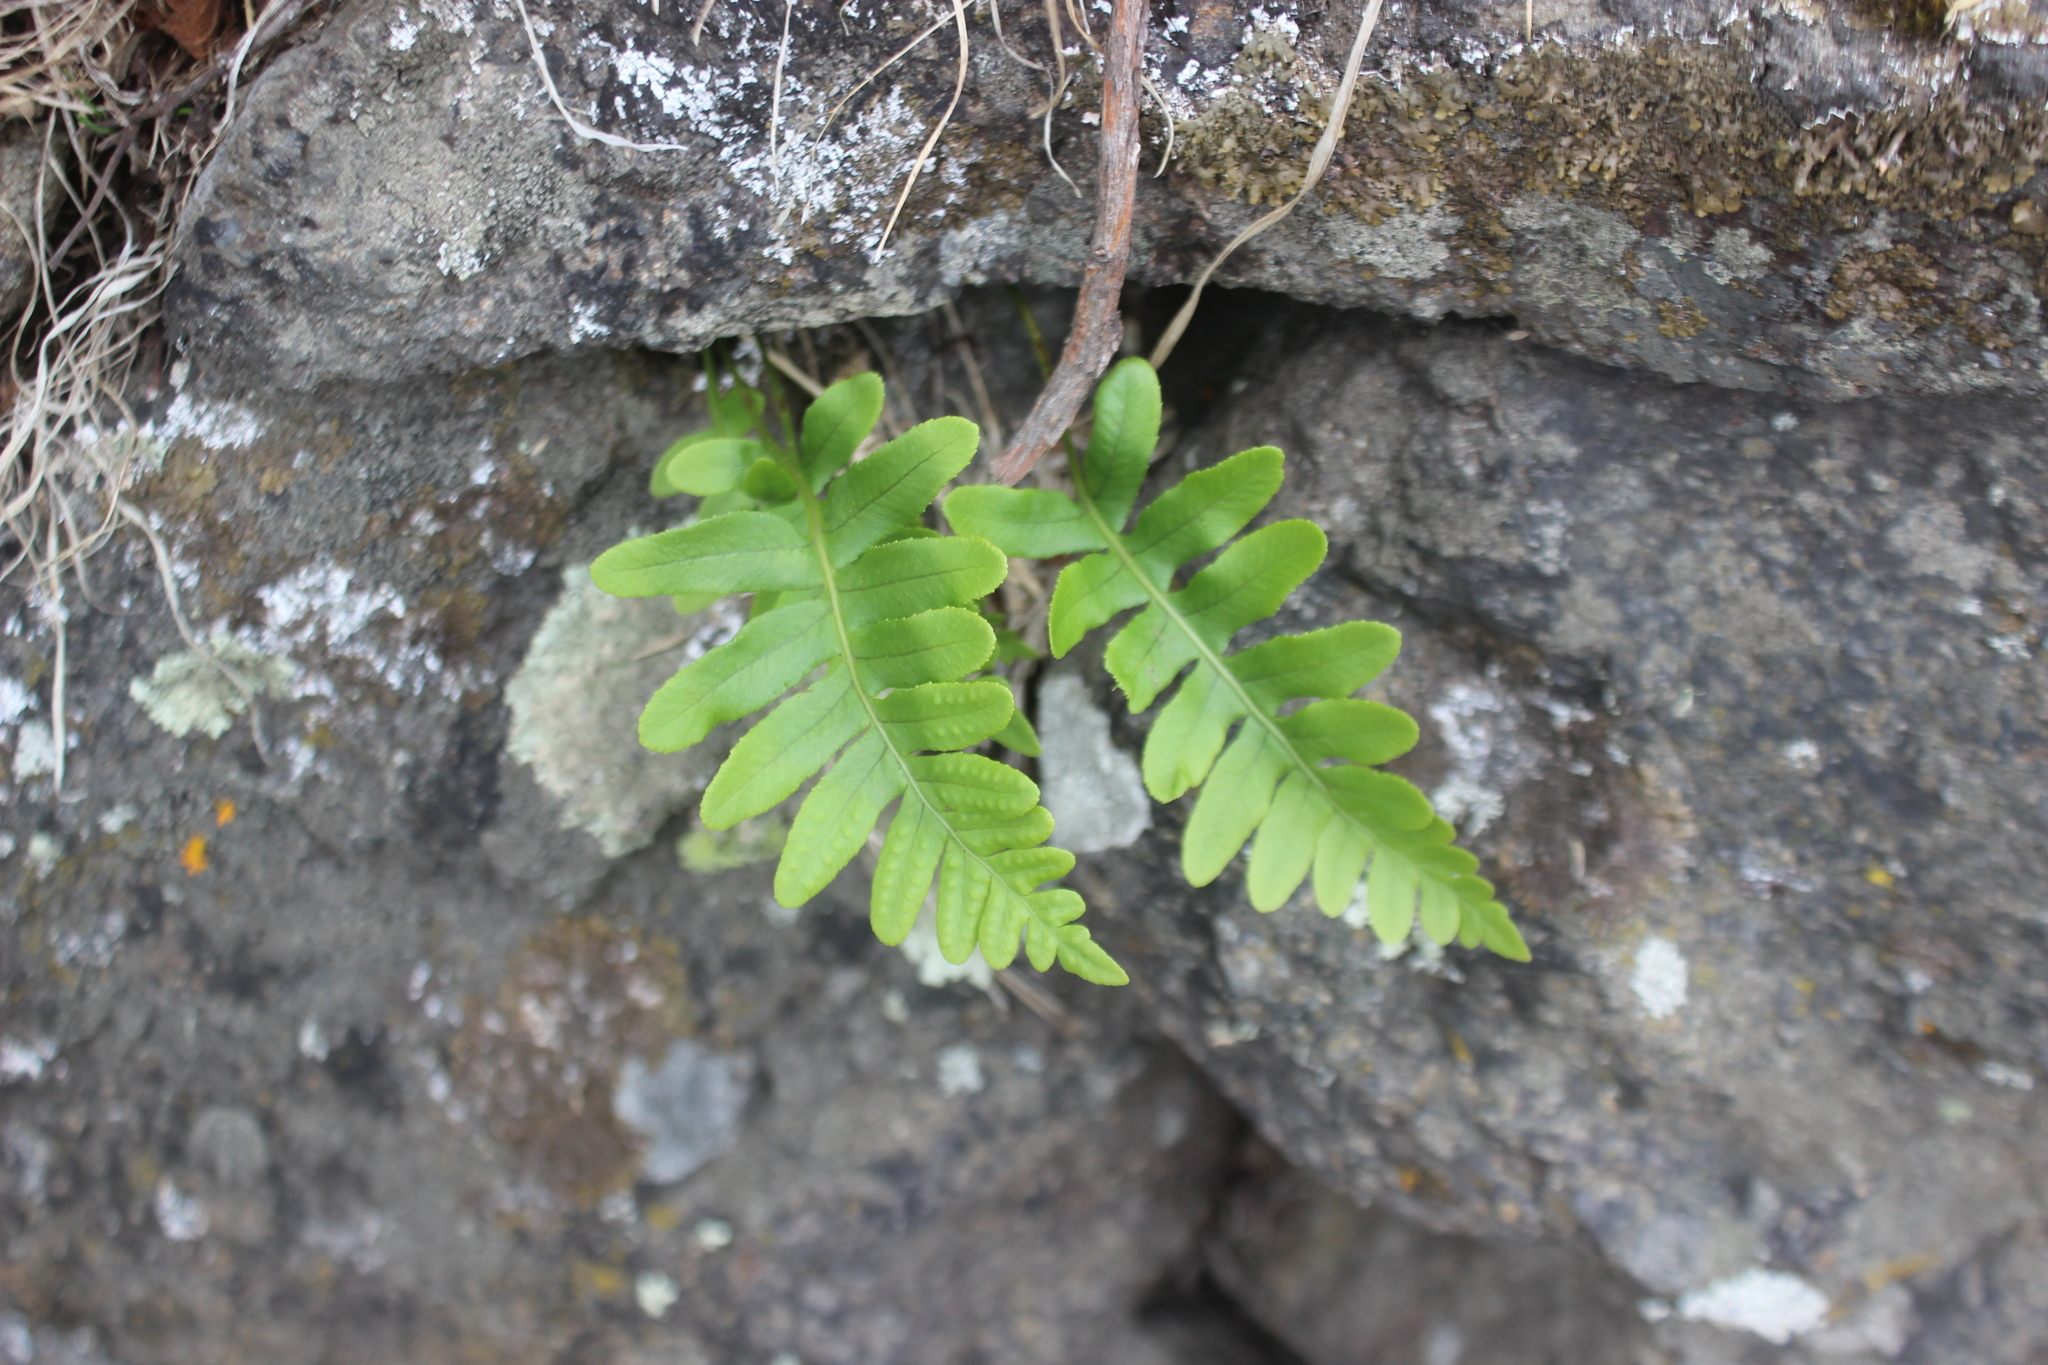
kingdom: Plantae
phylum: Tracheophyta
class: Polypodiopsida
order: Polypodiales
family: Polypodiaceae
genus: Polypodium
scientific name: Polypodium vulgare
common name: Common polypody
